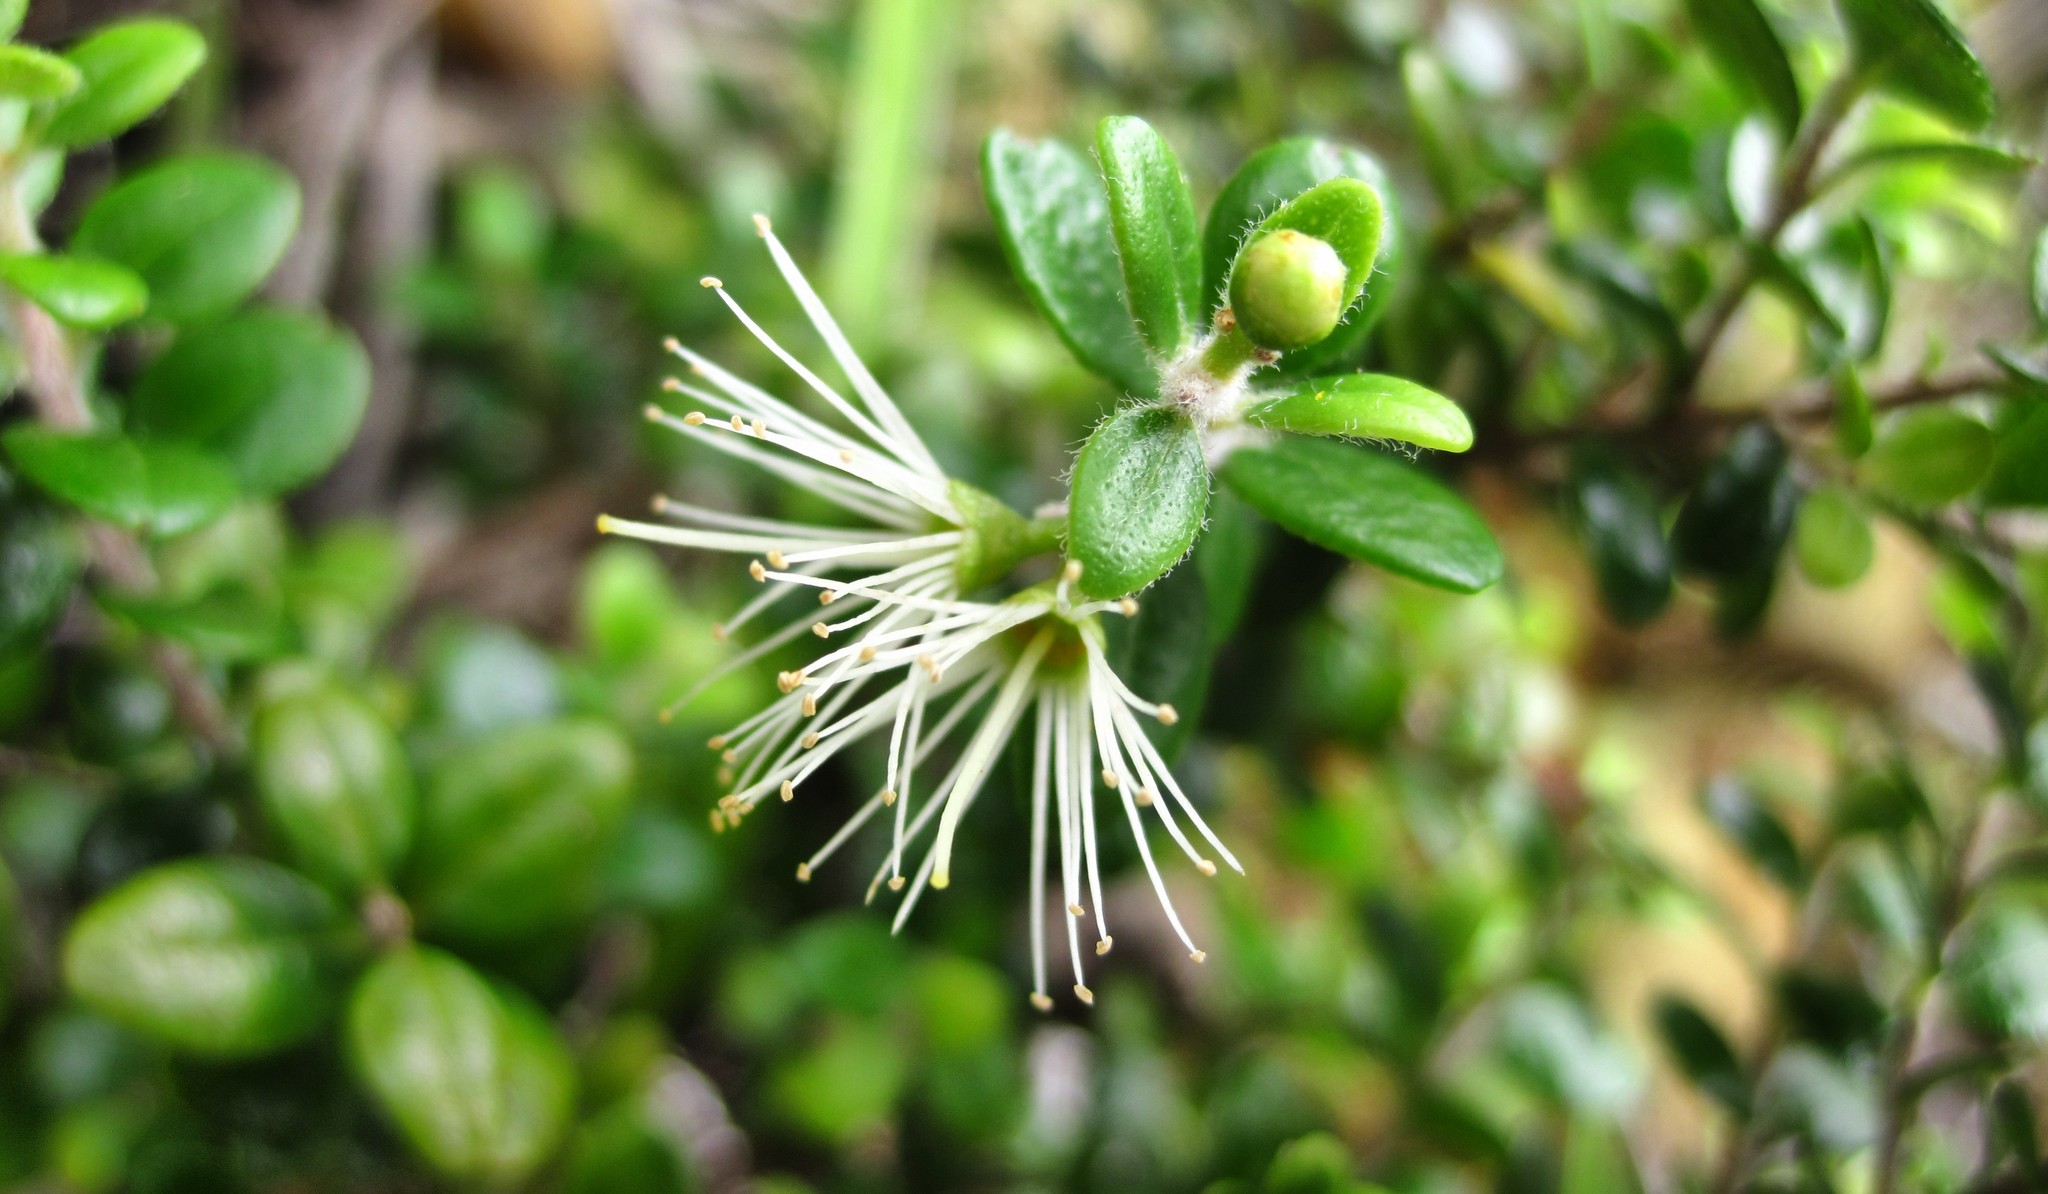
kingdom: Plantae
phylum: Tracheophyta
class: Magnoliopsida
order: Myrtales
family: Myrtaceae
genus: Metrosideros
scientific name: Metrosideros perforata
